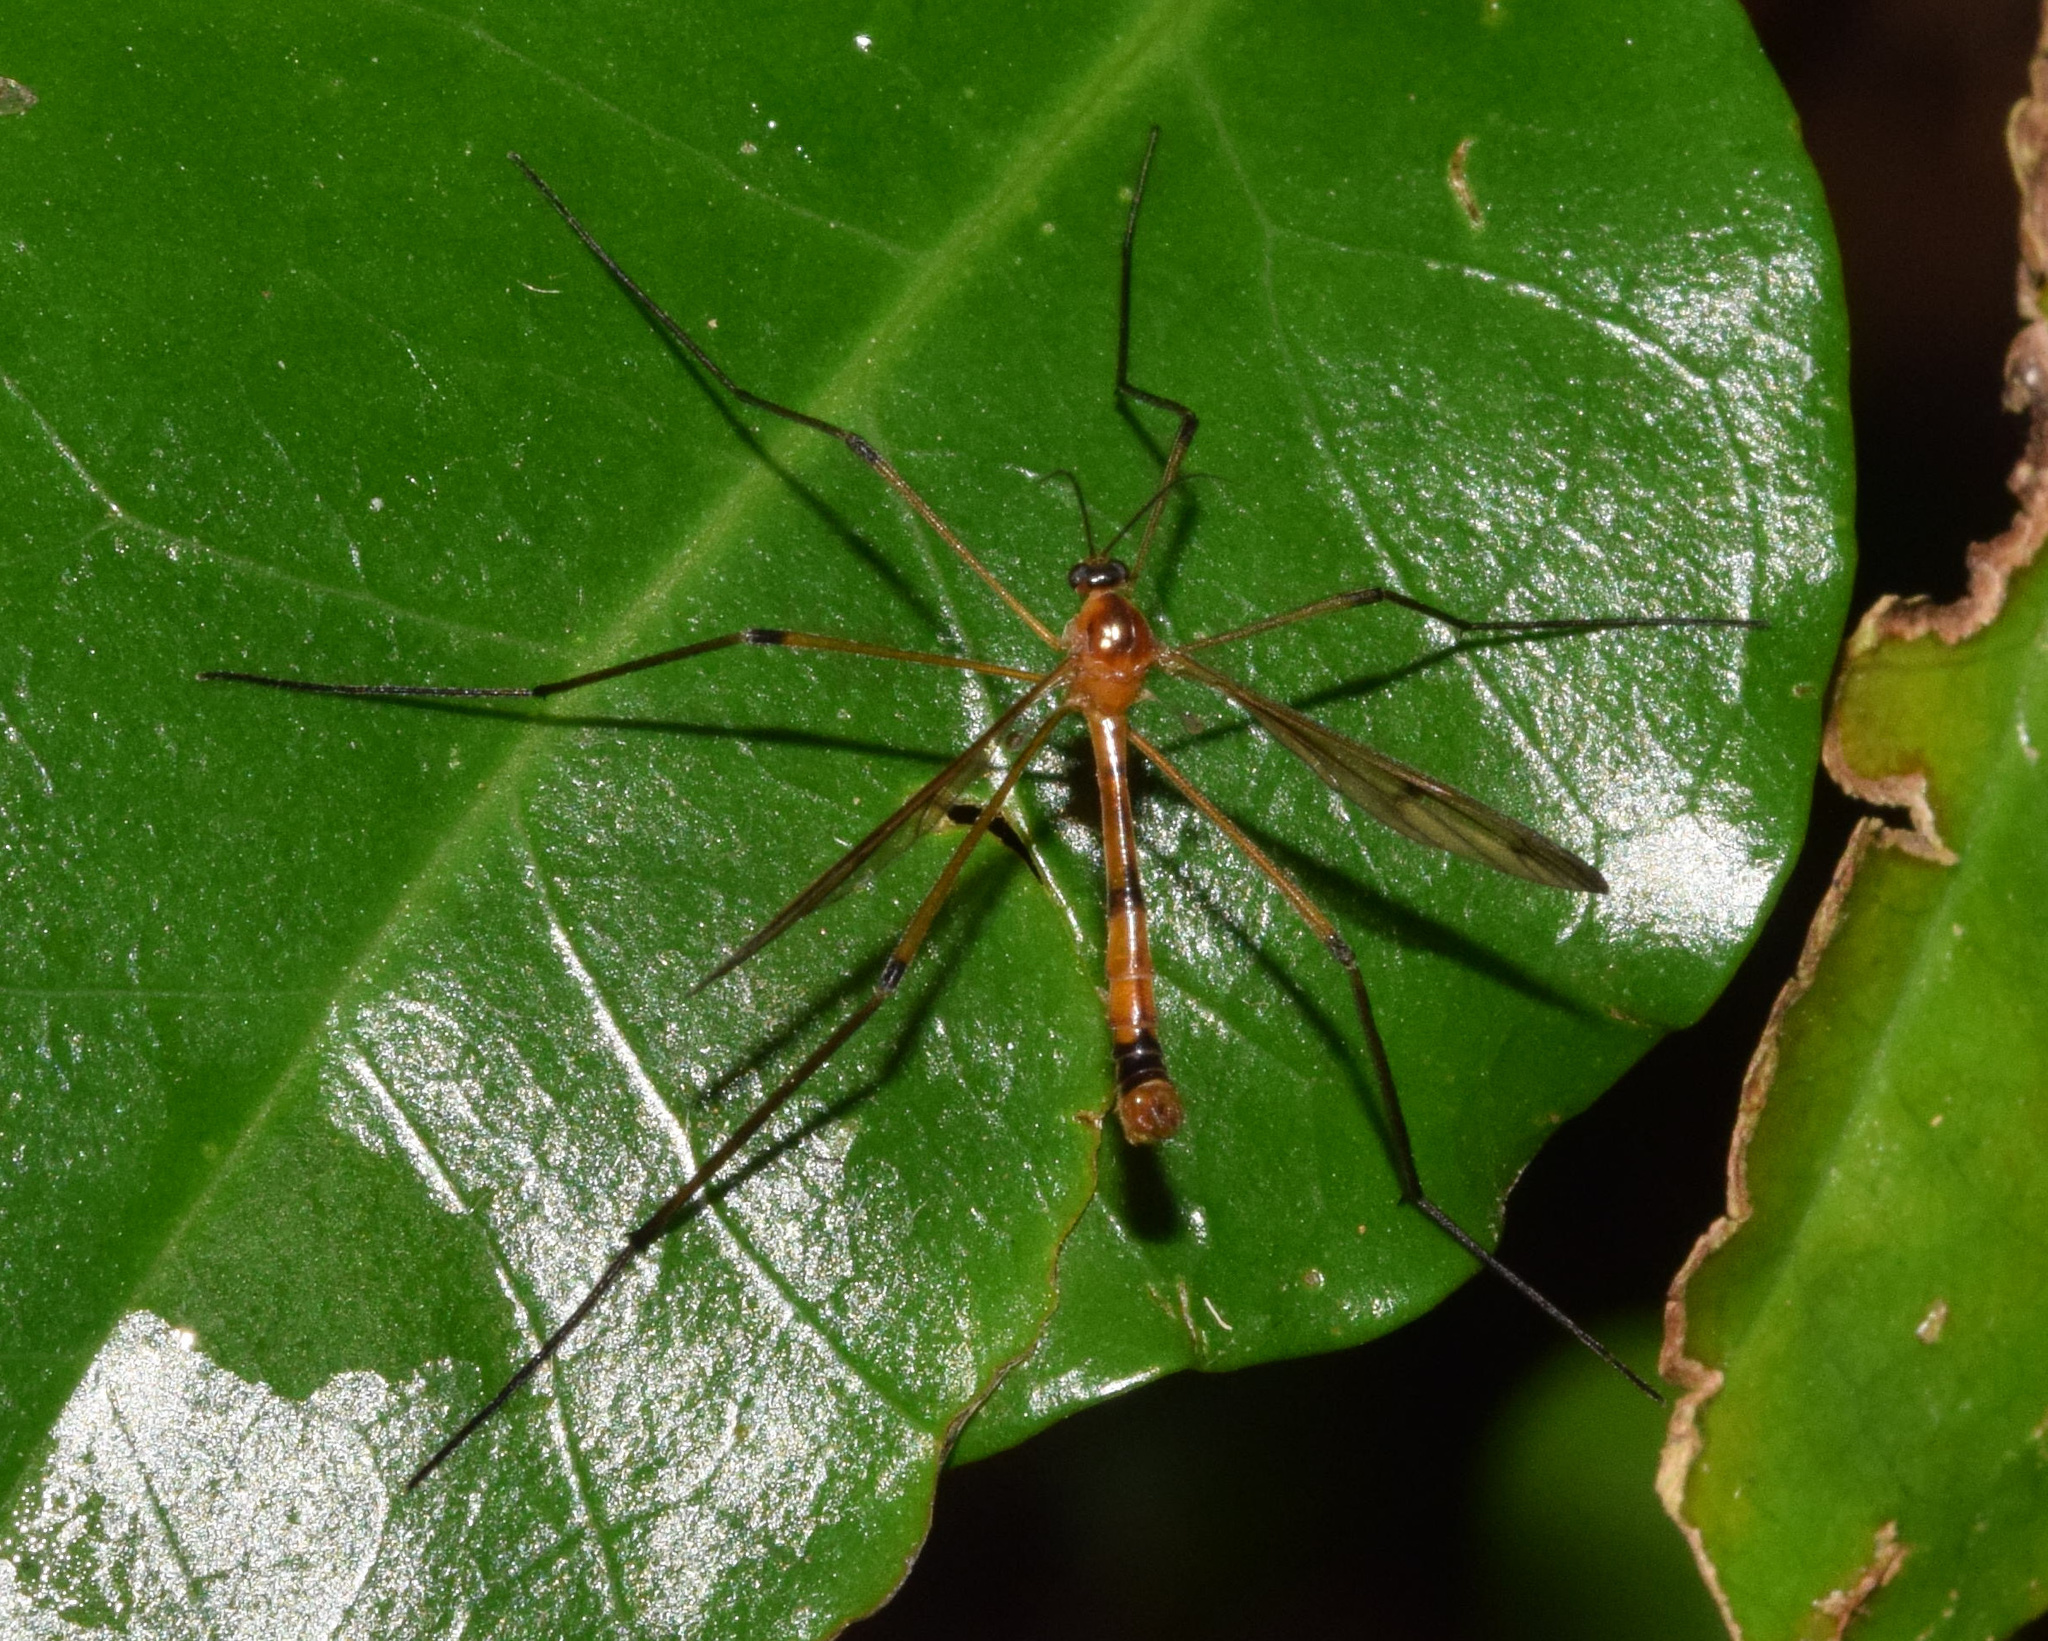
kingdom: Animalia
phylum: Arthropoda
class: Insecta
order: Diptera
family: Ptychopteridae
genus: Ptychoptera
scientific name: Ptychoptera capensis
